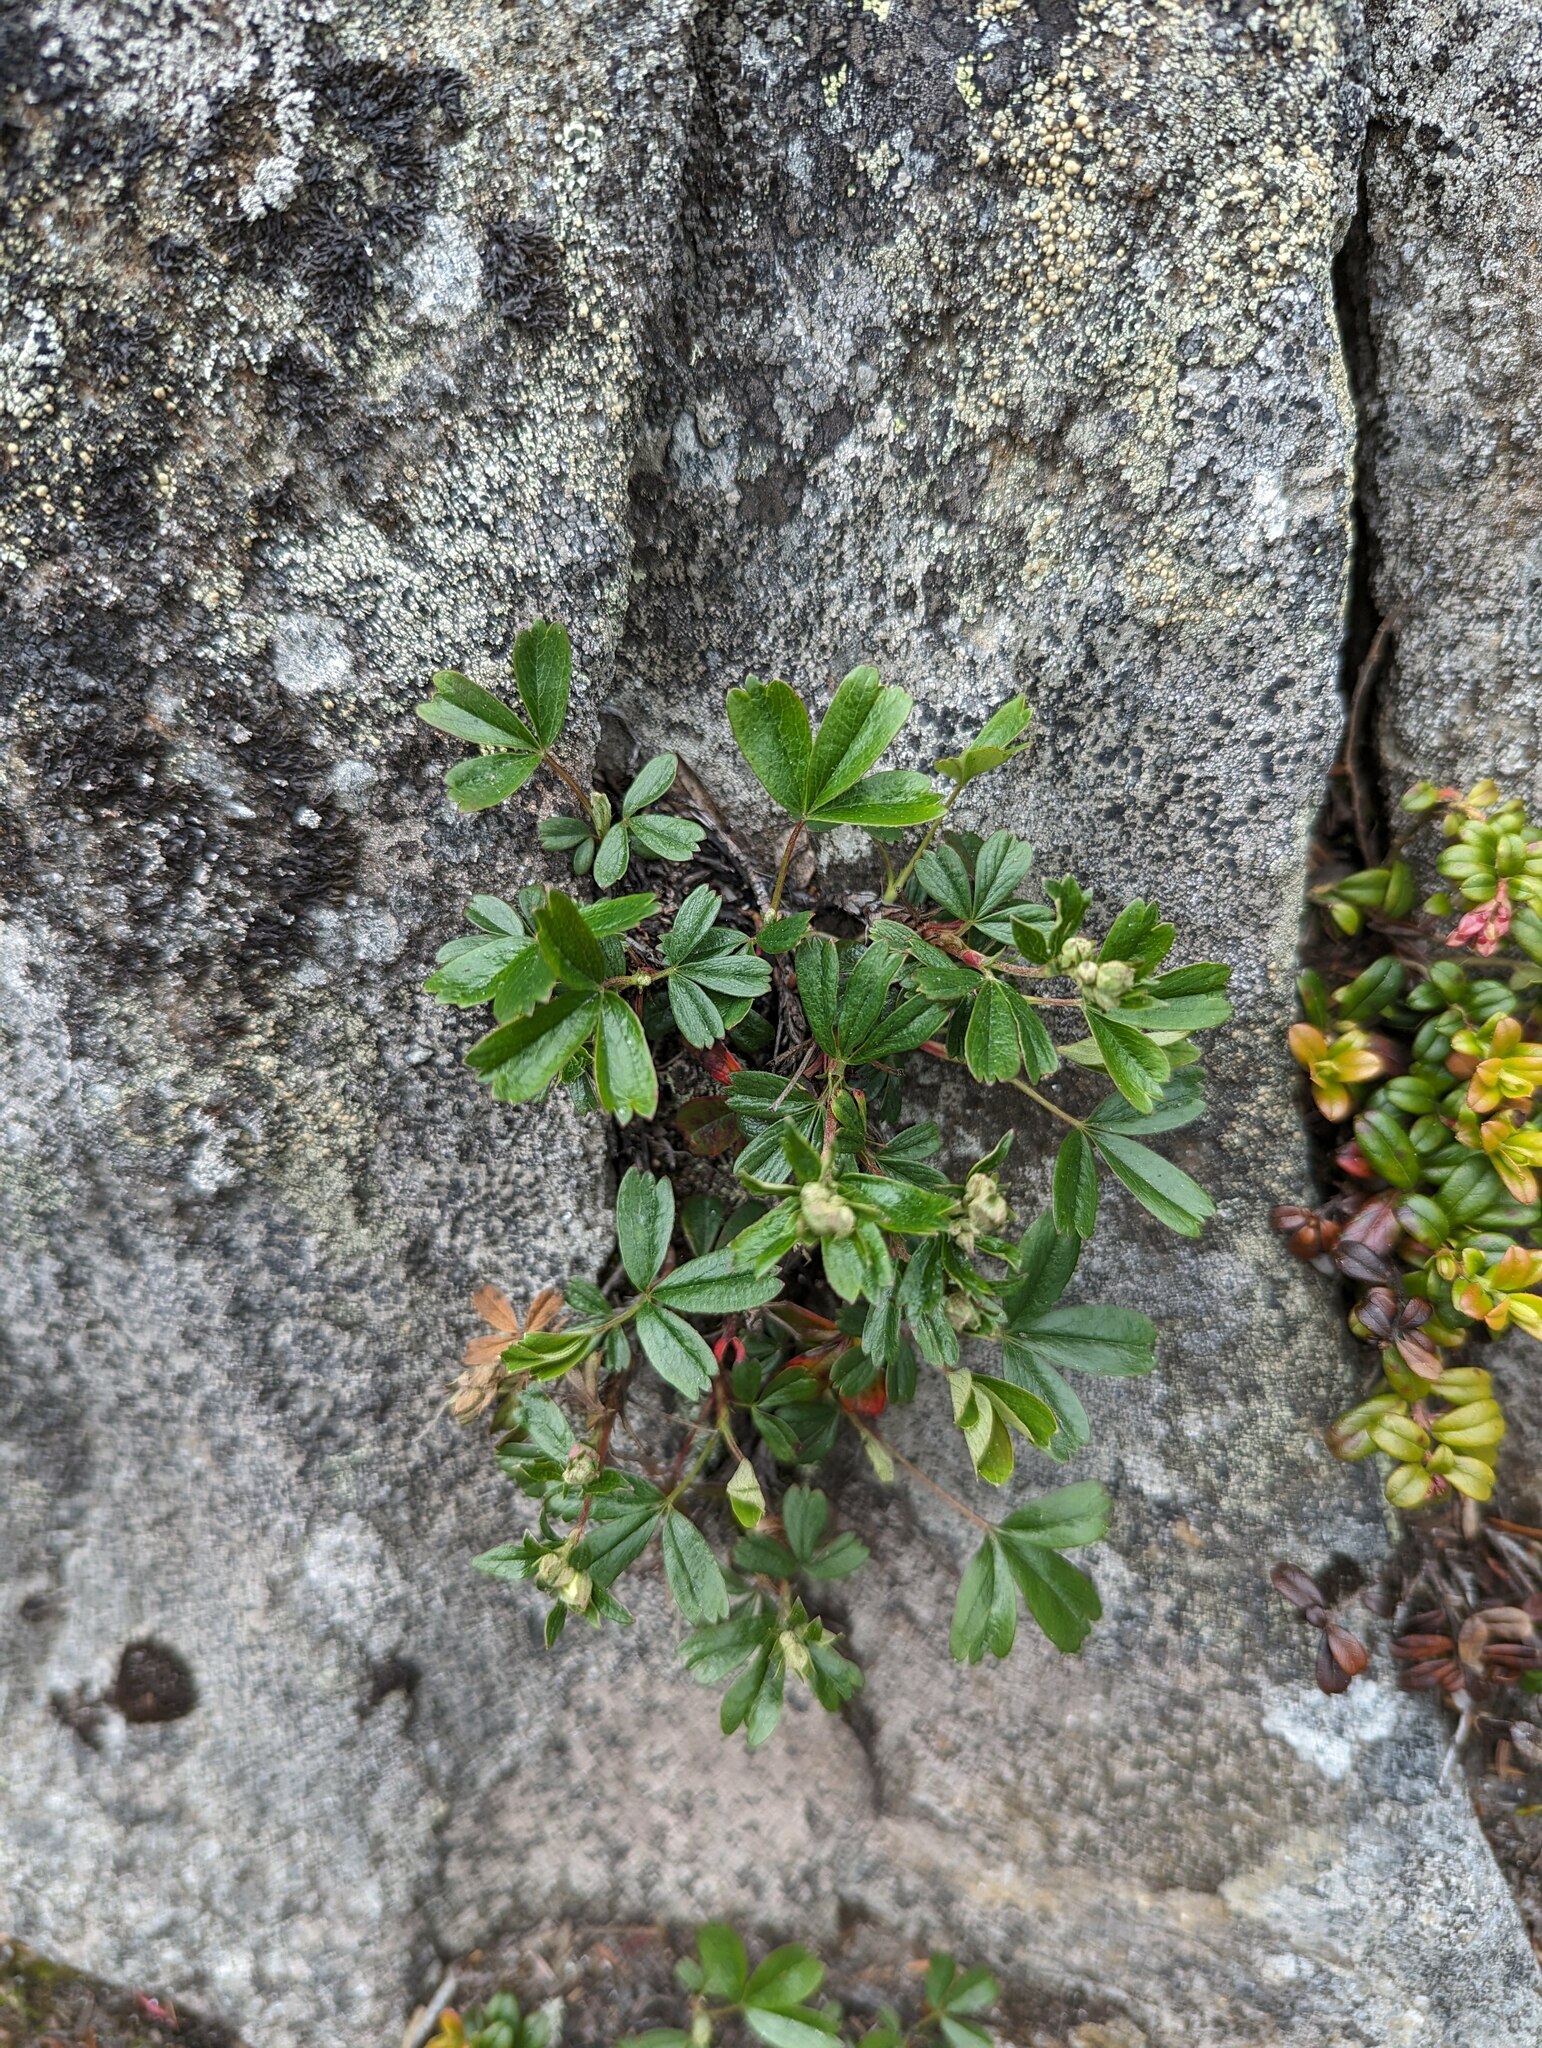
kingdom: Plantae
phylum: Tracheophyta
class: Magnoliopsida
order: Rosales
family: Rosaceae
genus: Sibbaldia
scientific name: Sibbaldia tridentata
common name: Three-toothed cinquefoil
